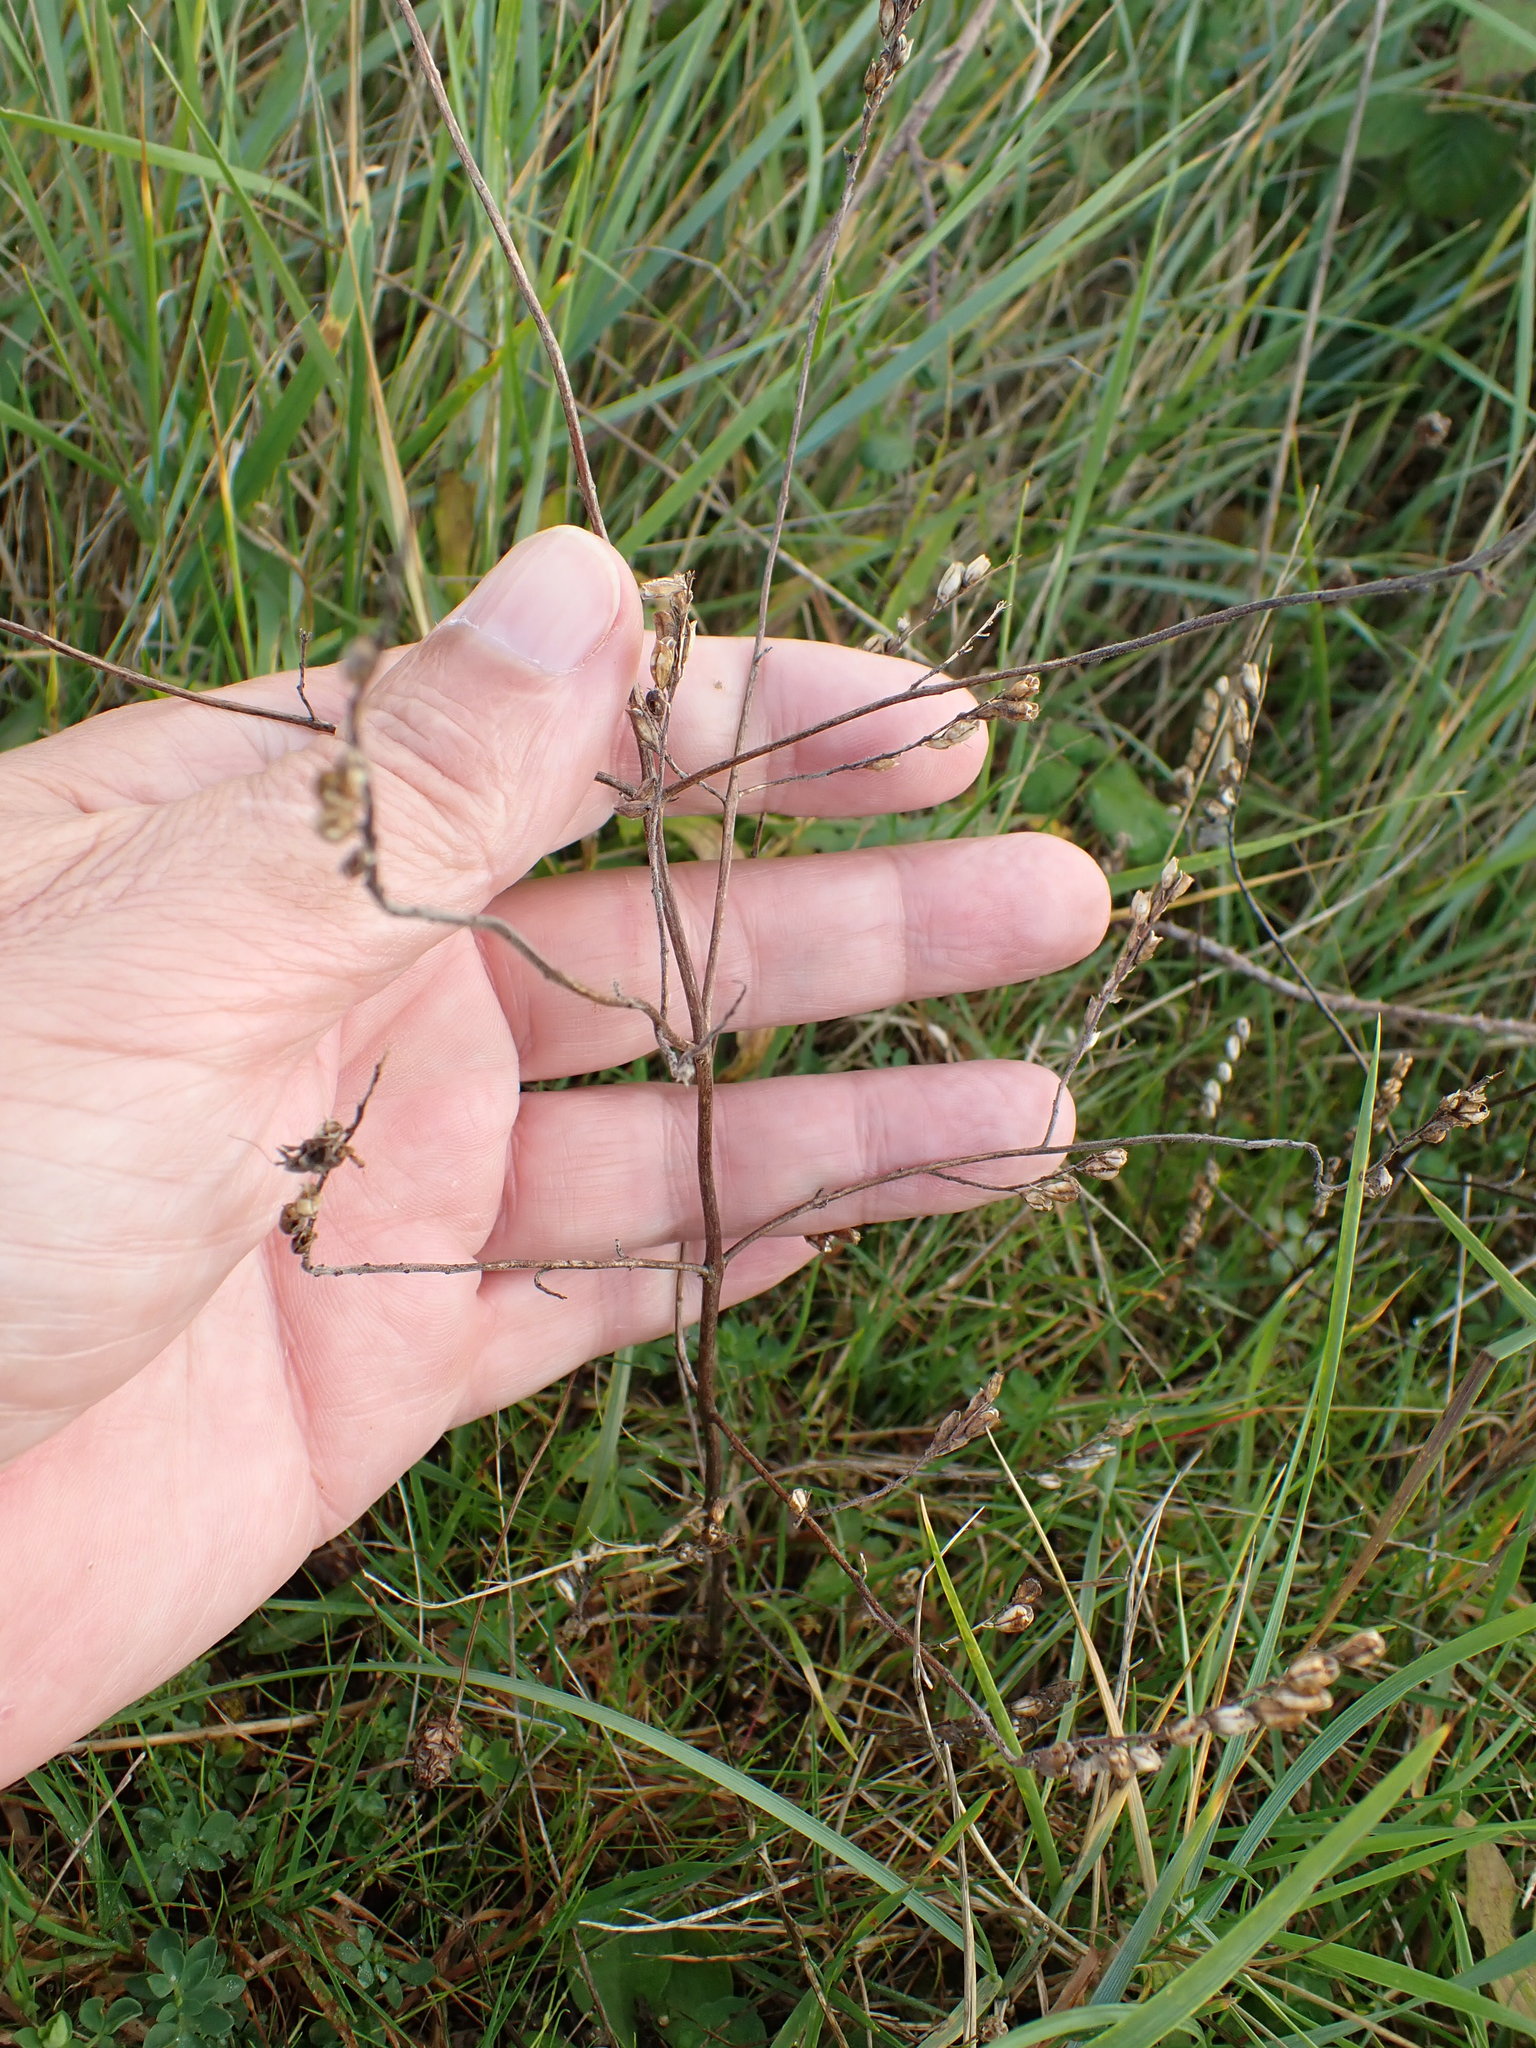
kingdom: Plantae
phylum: Tracheophyta
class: Magnoliopsida
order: Lamiales
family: Orobanchaceae
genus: Odontites
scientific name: Odontites vulgaris
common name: Broomrape
